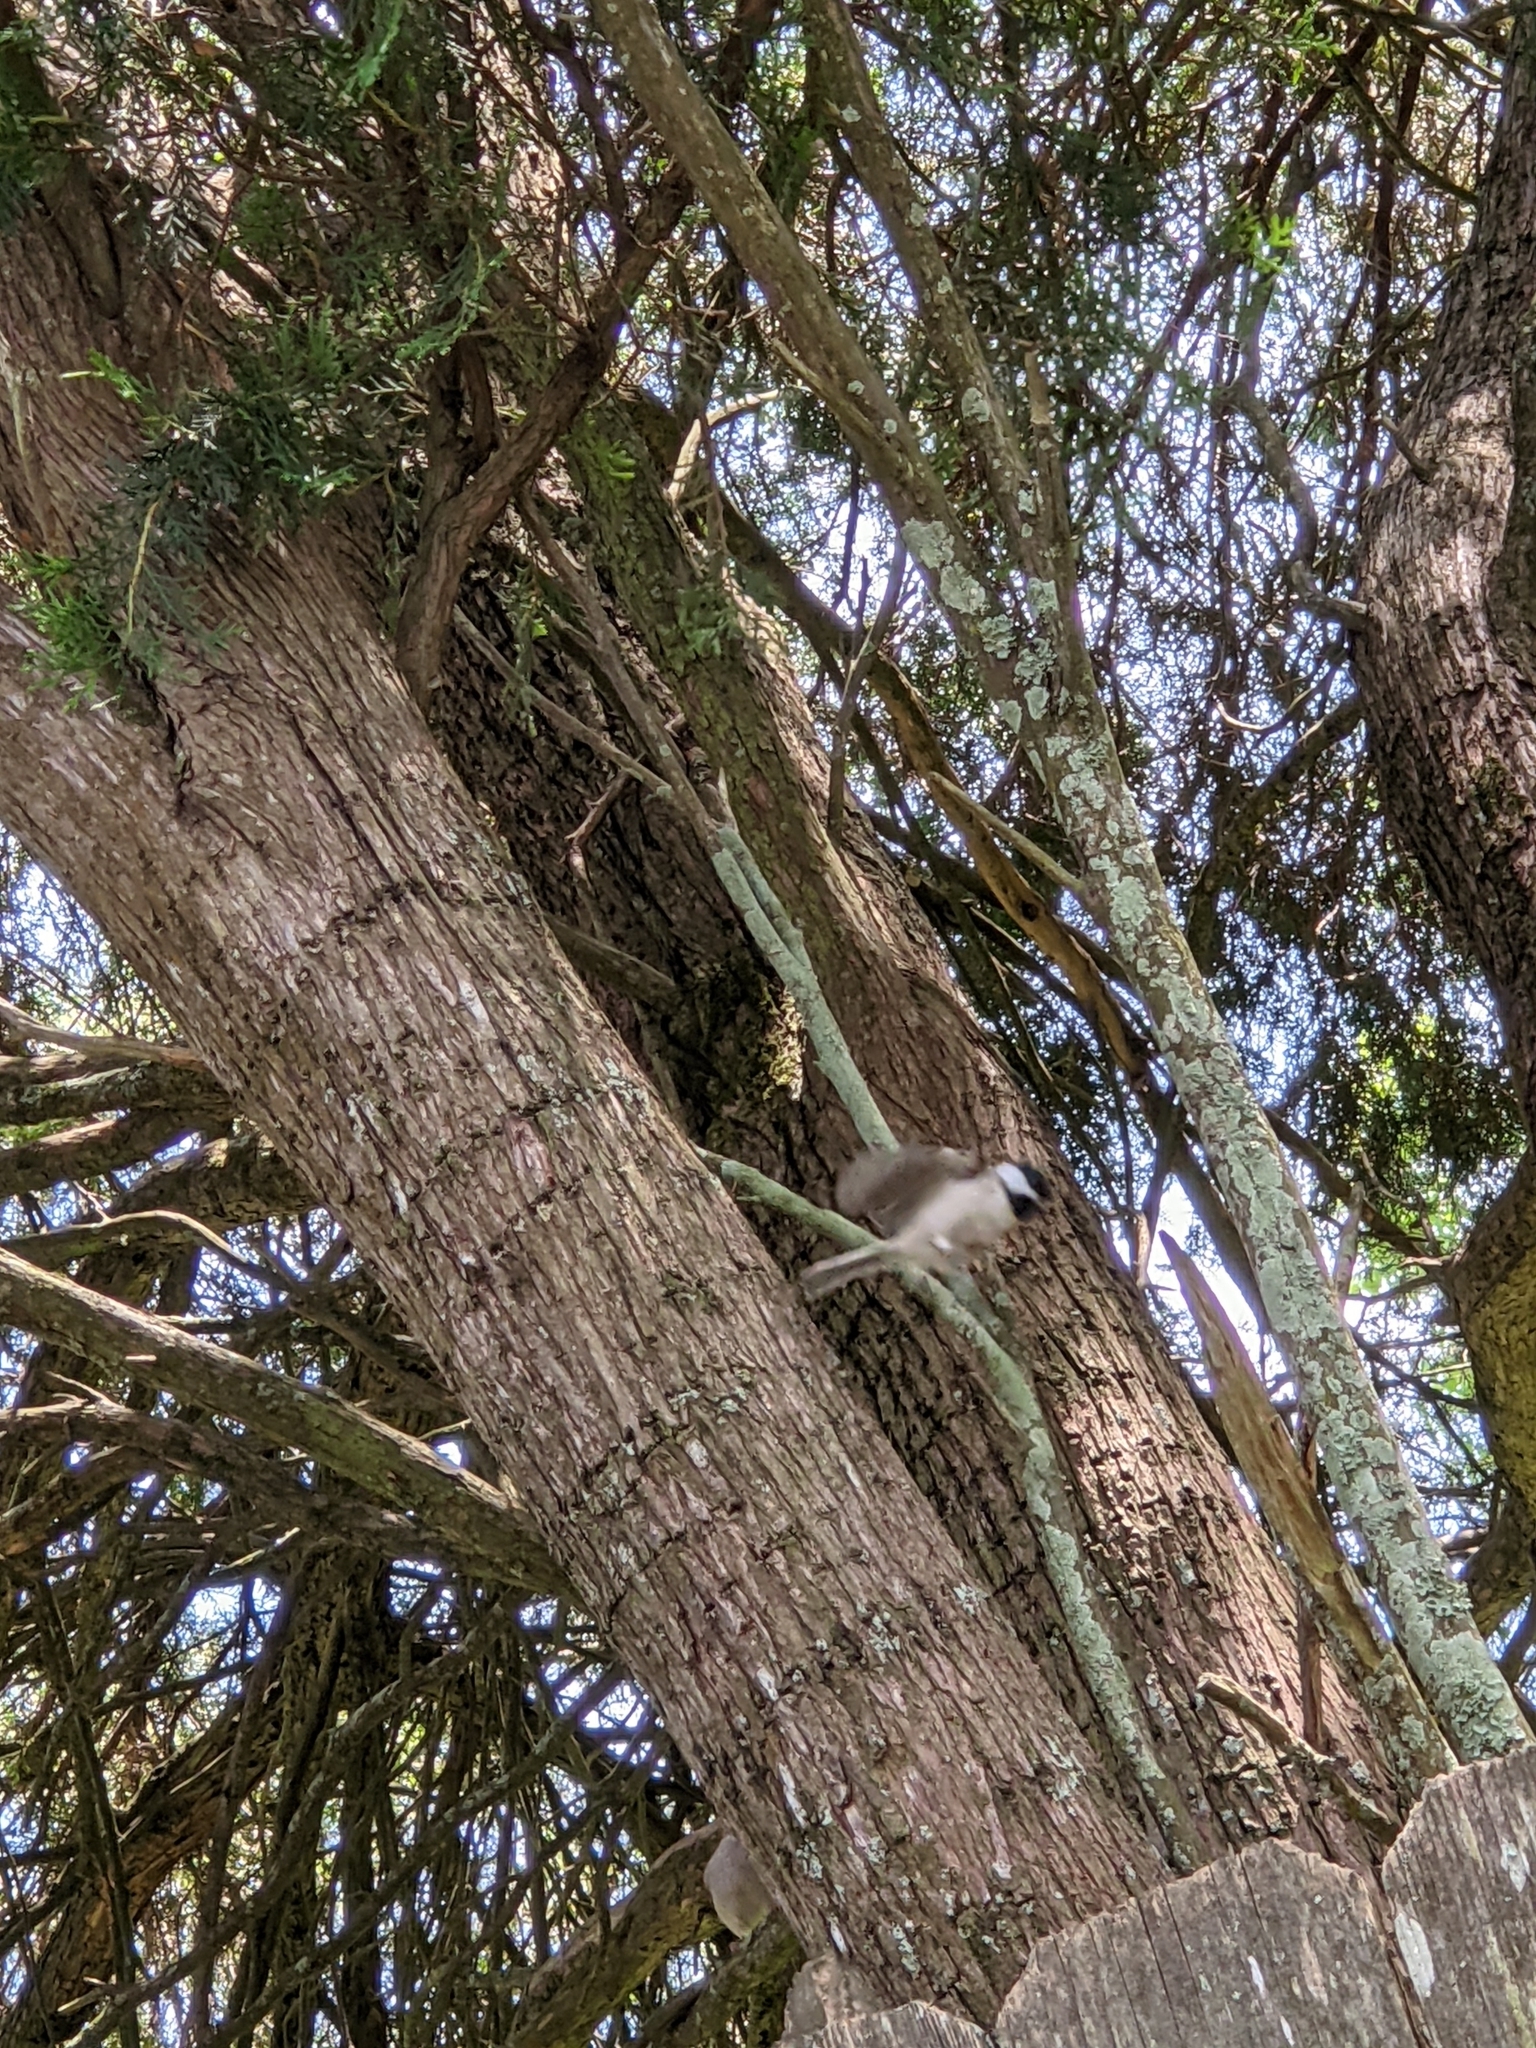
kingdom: Animalia
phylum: Chordata
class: Aves
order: Passeriformes
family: Paridae
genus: Poecile
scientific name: Poecile carolinensis
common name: Carolina chickadee
